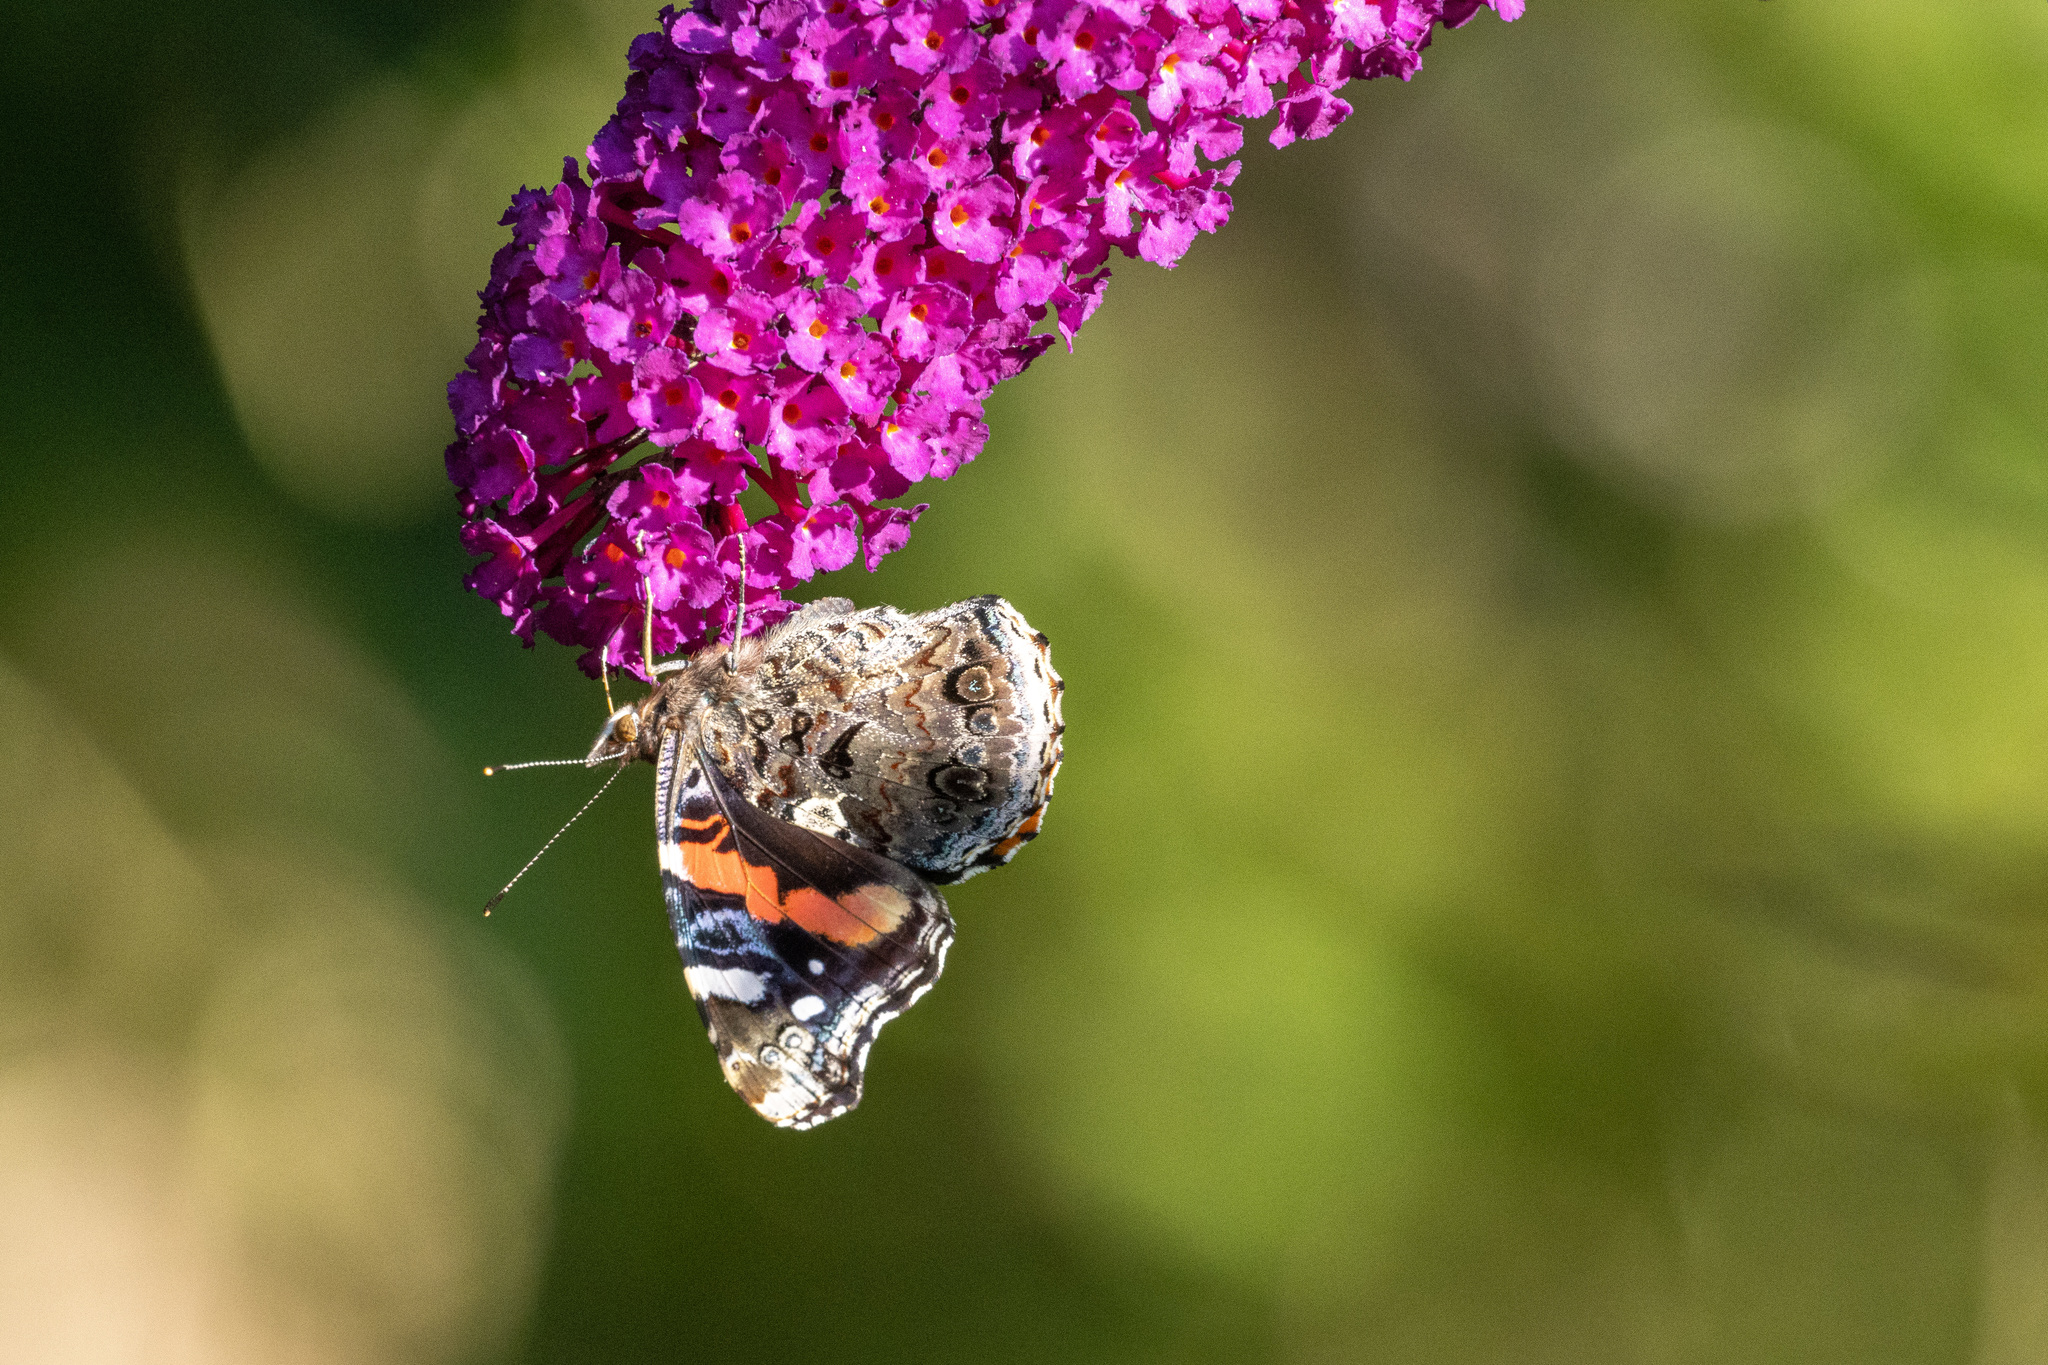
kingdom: Animalia
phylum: Arthropoda
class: Insecta
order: Lepidoptera
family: Nymphalidae
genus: Vanessa
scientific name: Vanessa atalanta
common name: Red admiral
